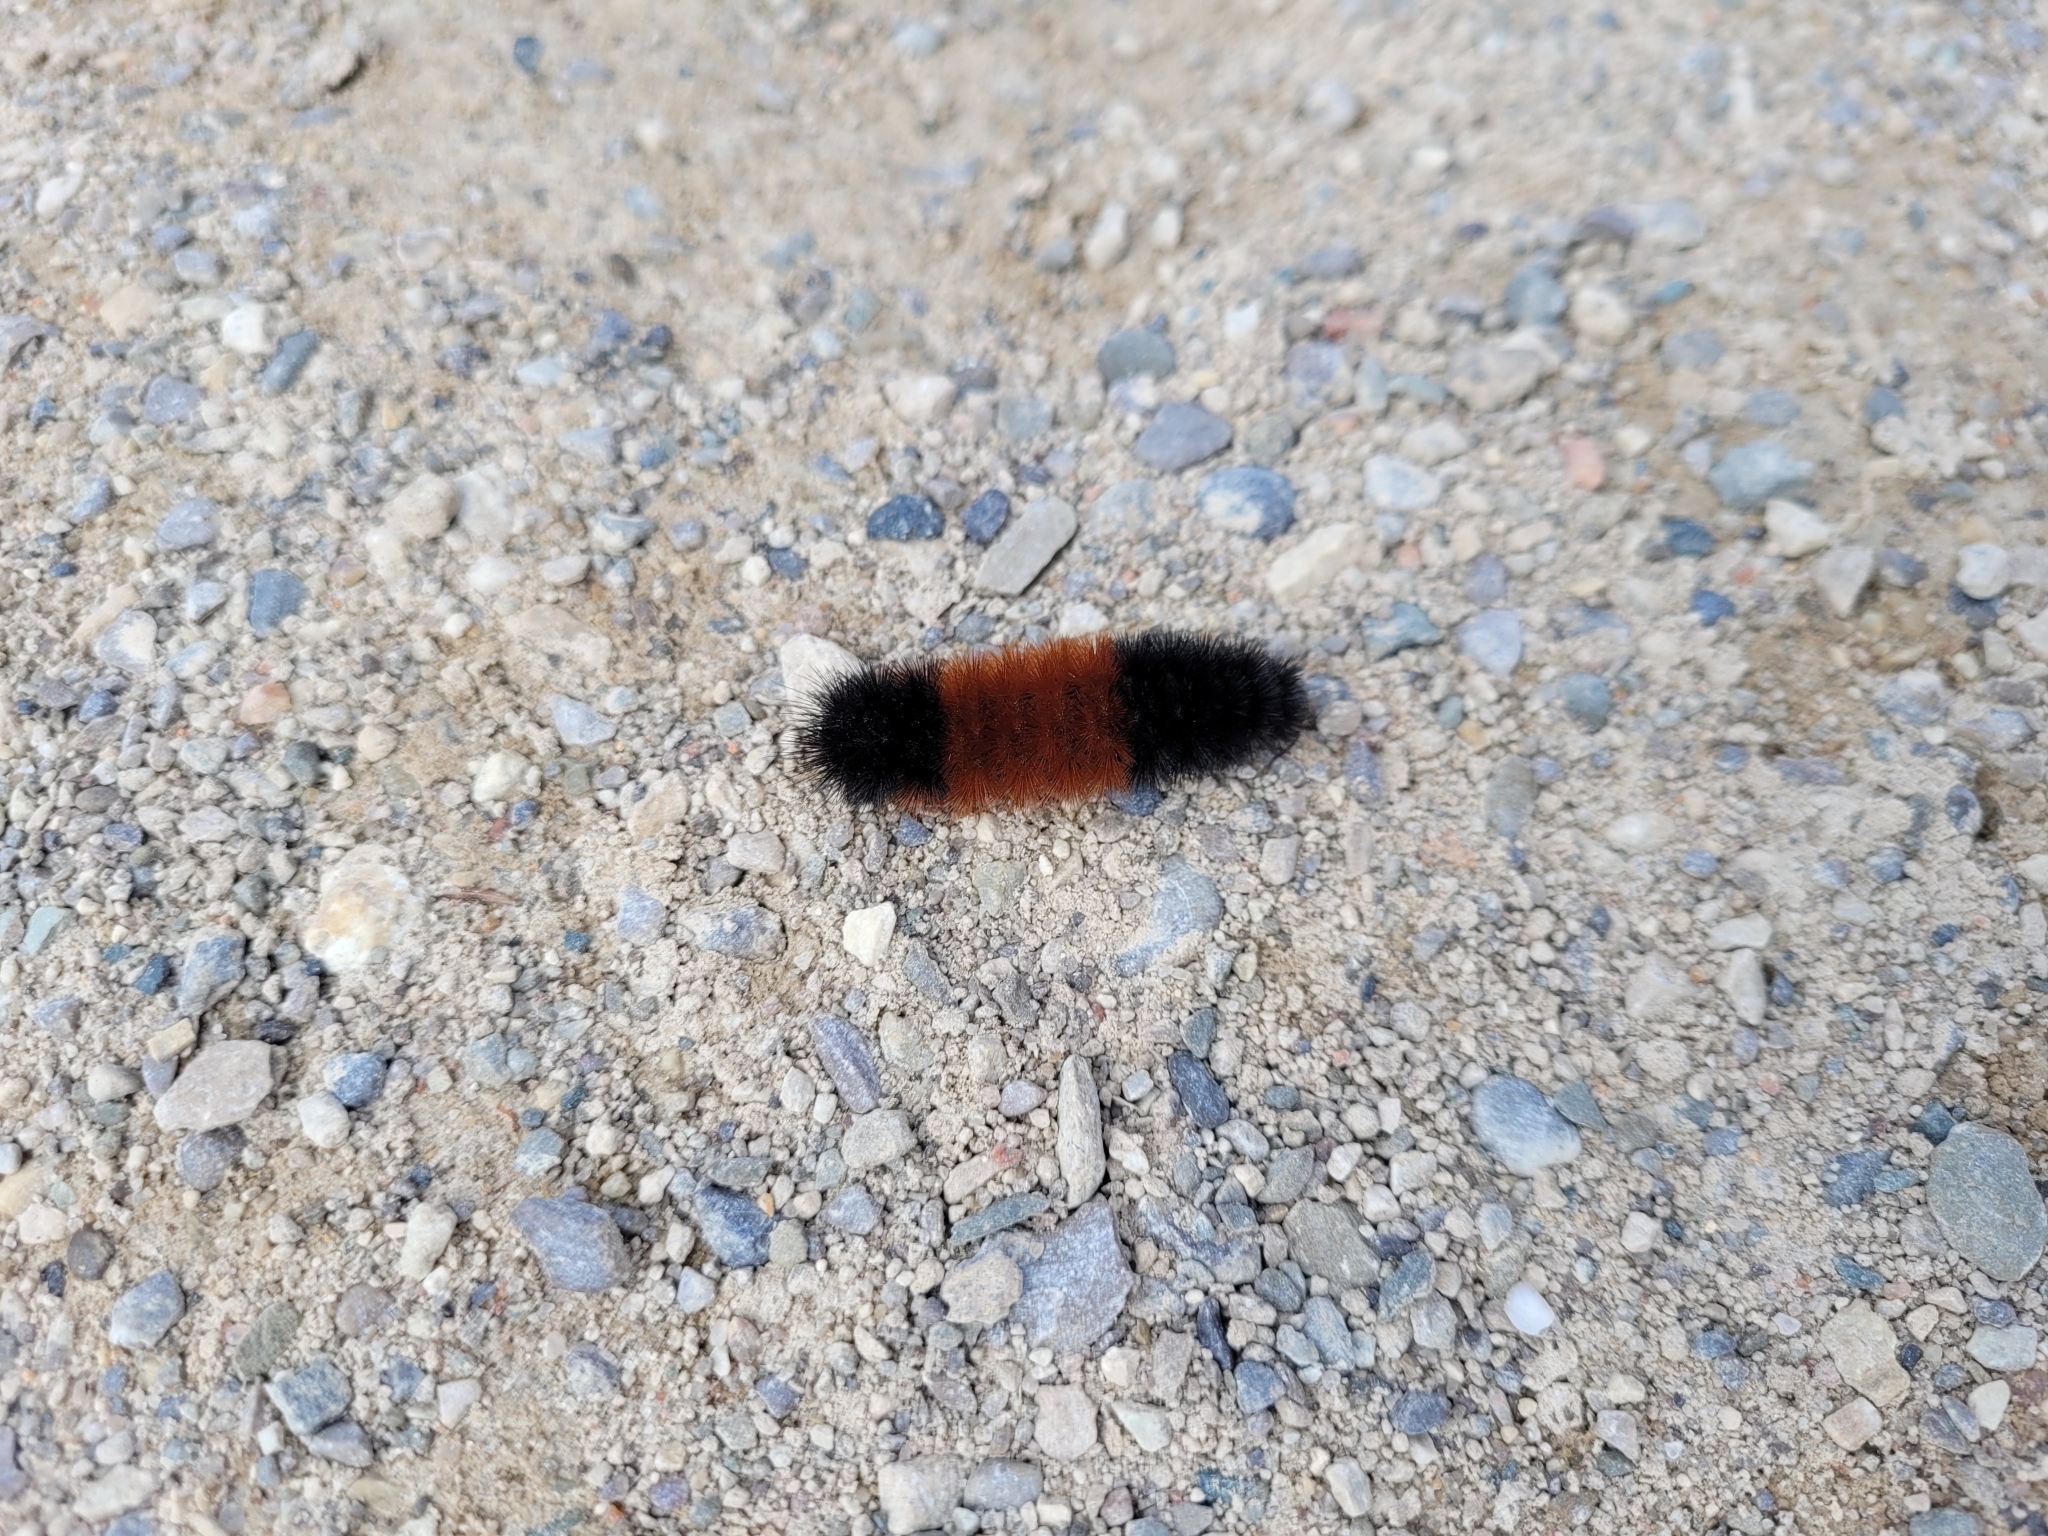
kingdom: Animalia
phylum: Arthropoda
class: Insecta
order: Lepidoptera
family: Erebidae
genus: Pyrrharctia
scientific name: Pyrrharctia isabella
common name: Isabella tiger moth
